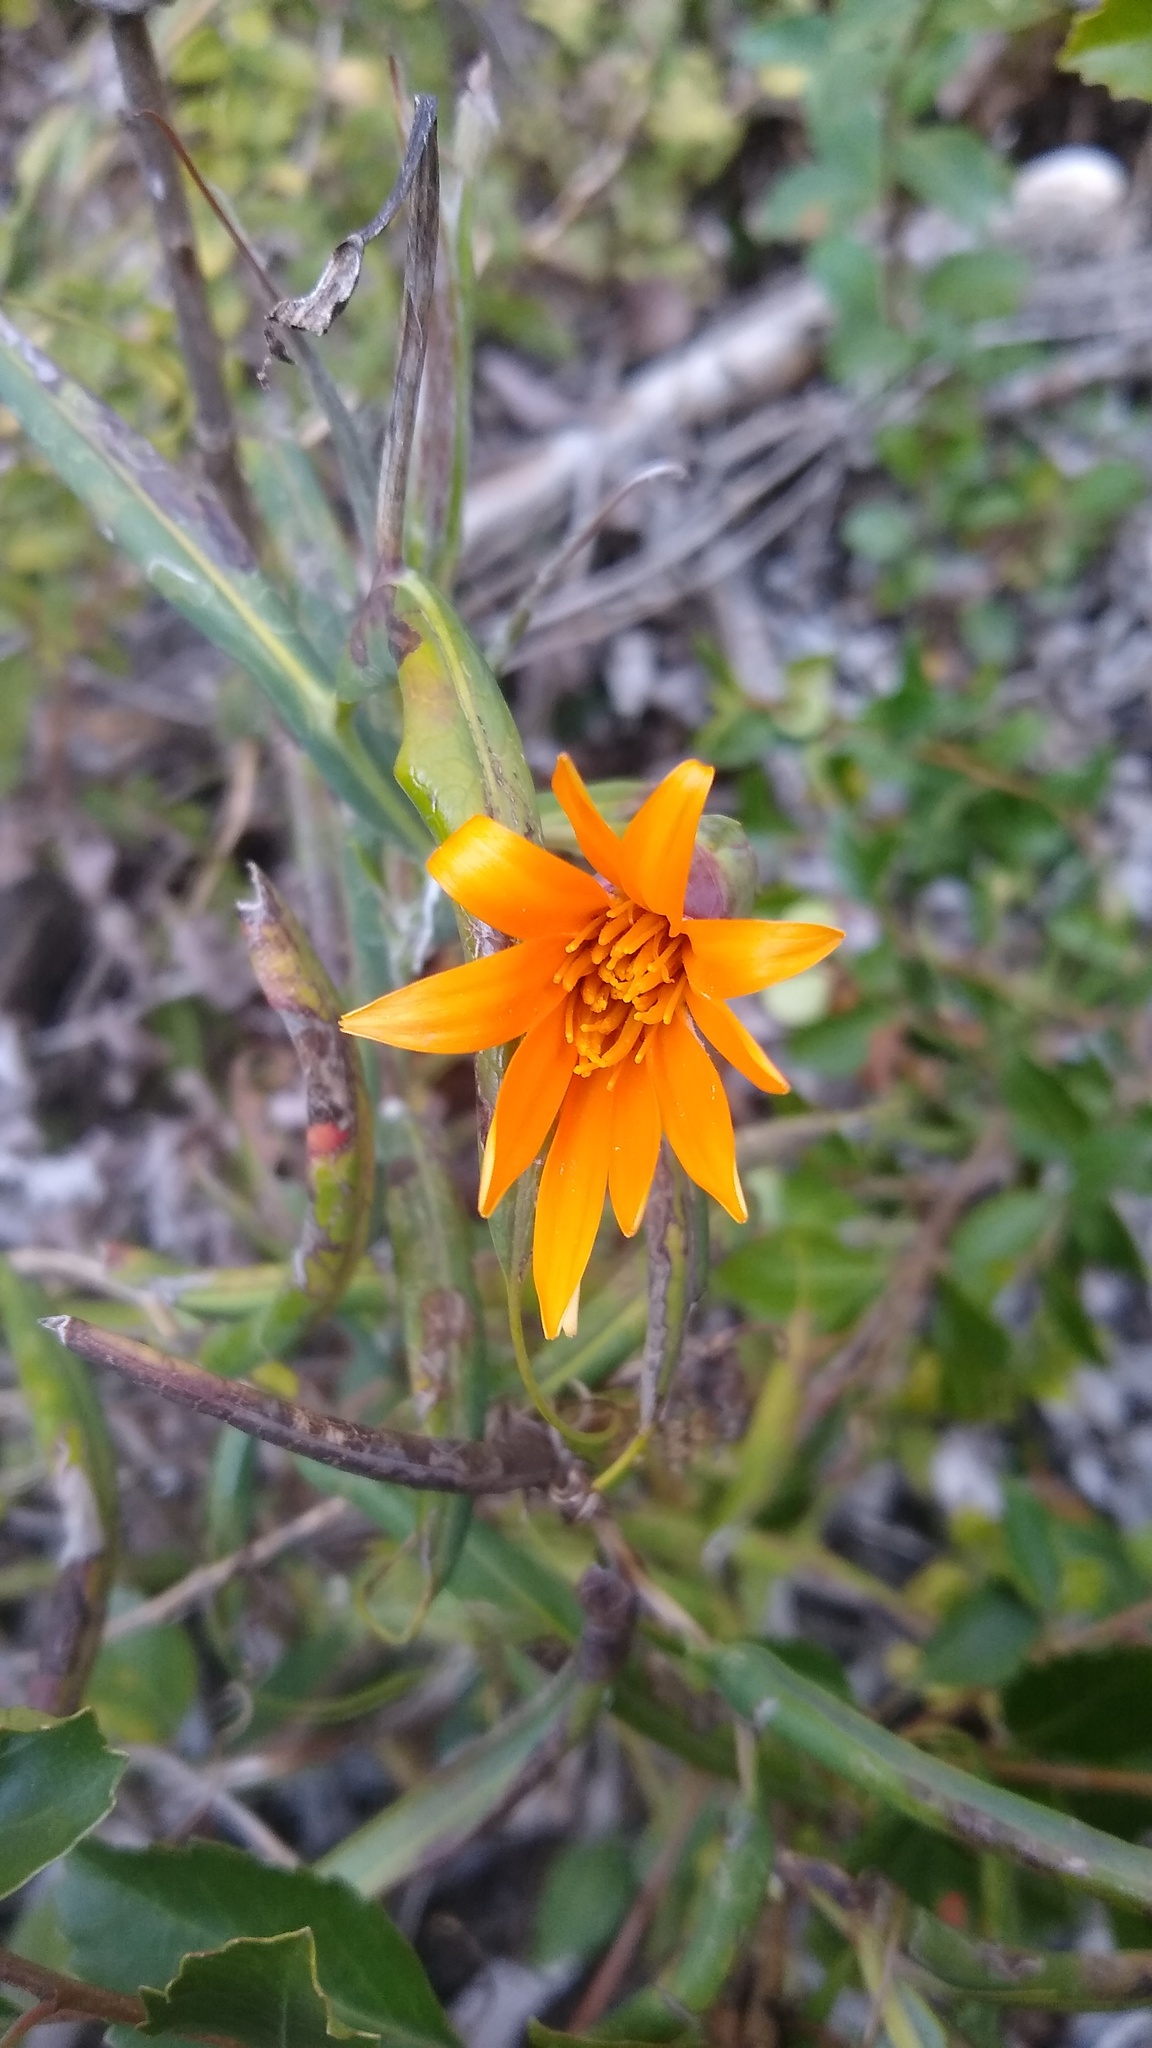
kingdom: Plantae
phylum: Tracheophyta
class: Magnoliopsida
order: Asterales
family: Asteraceae
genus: Mutisia
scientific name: Mutisia decurrens
